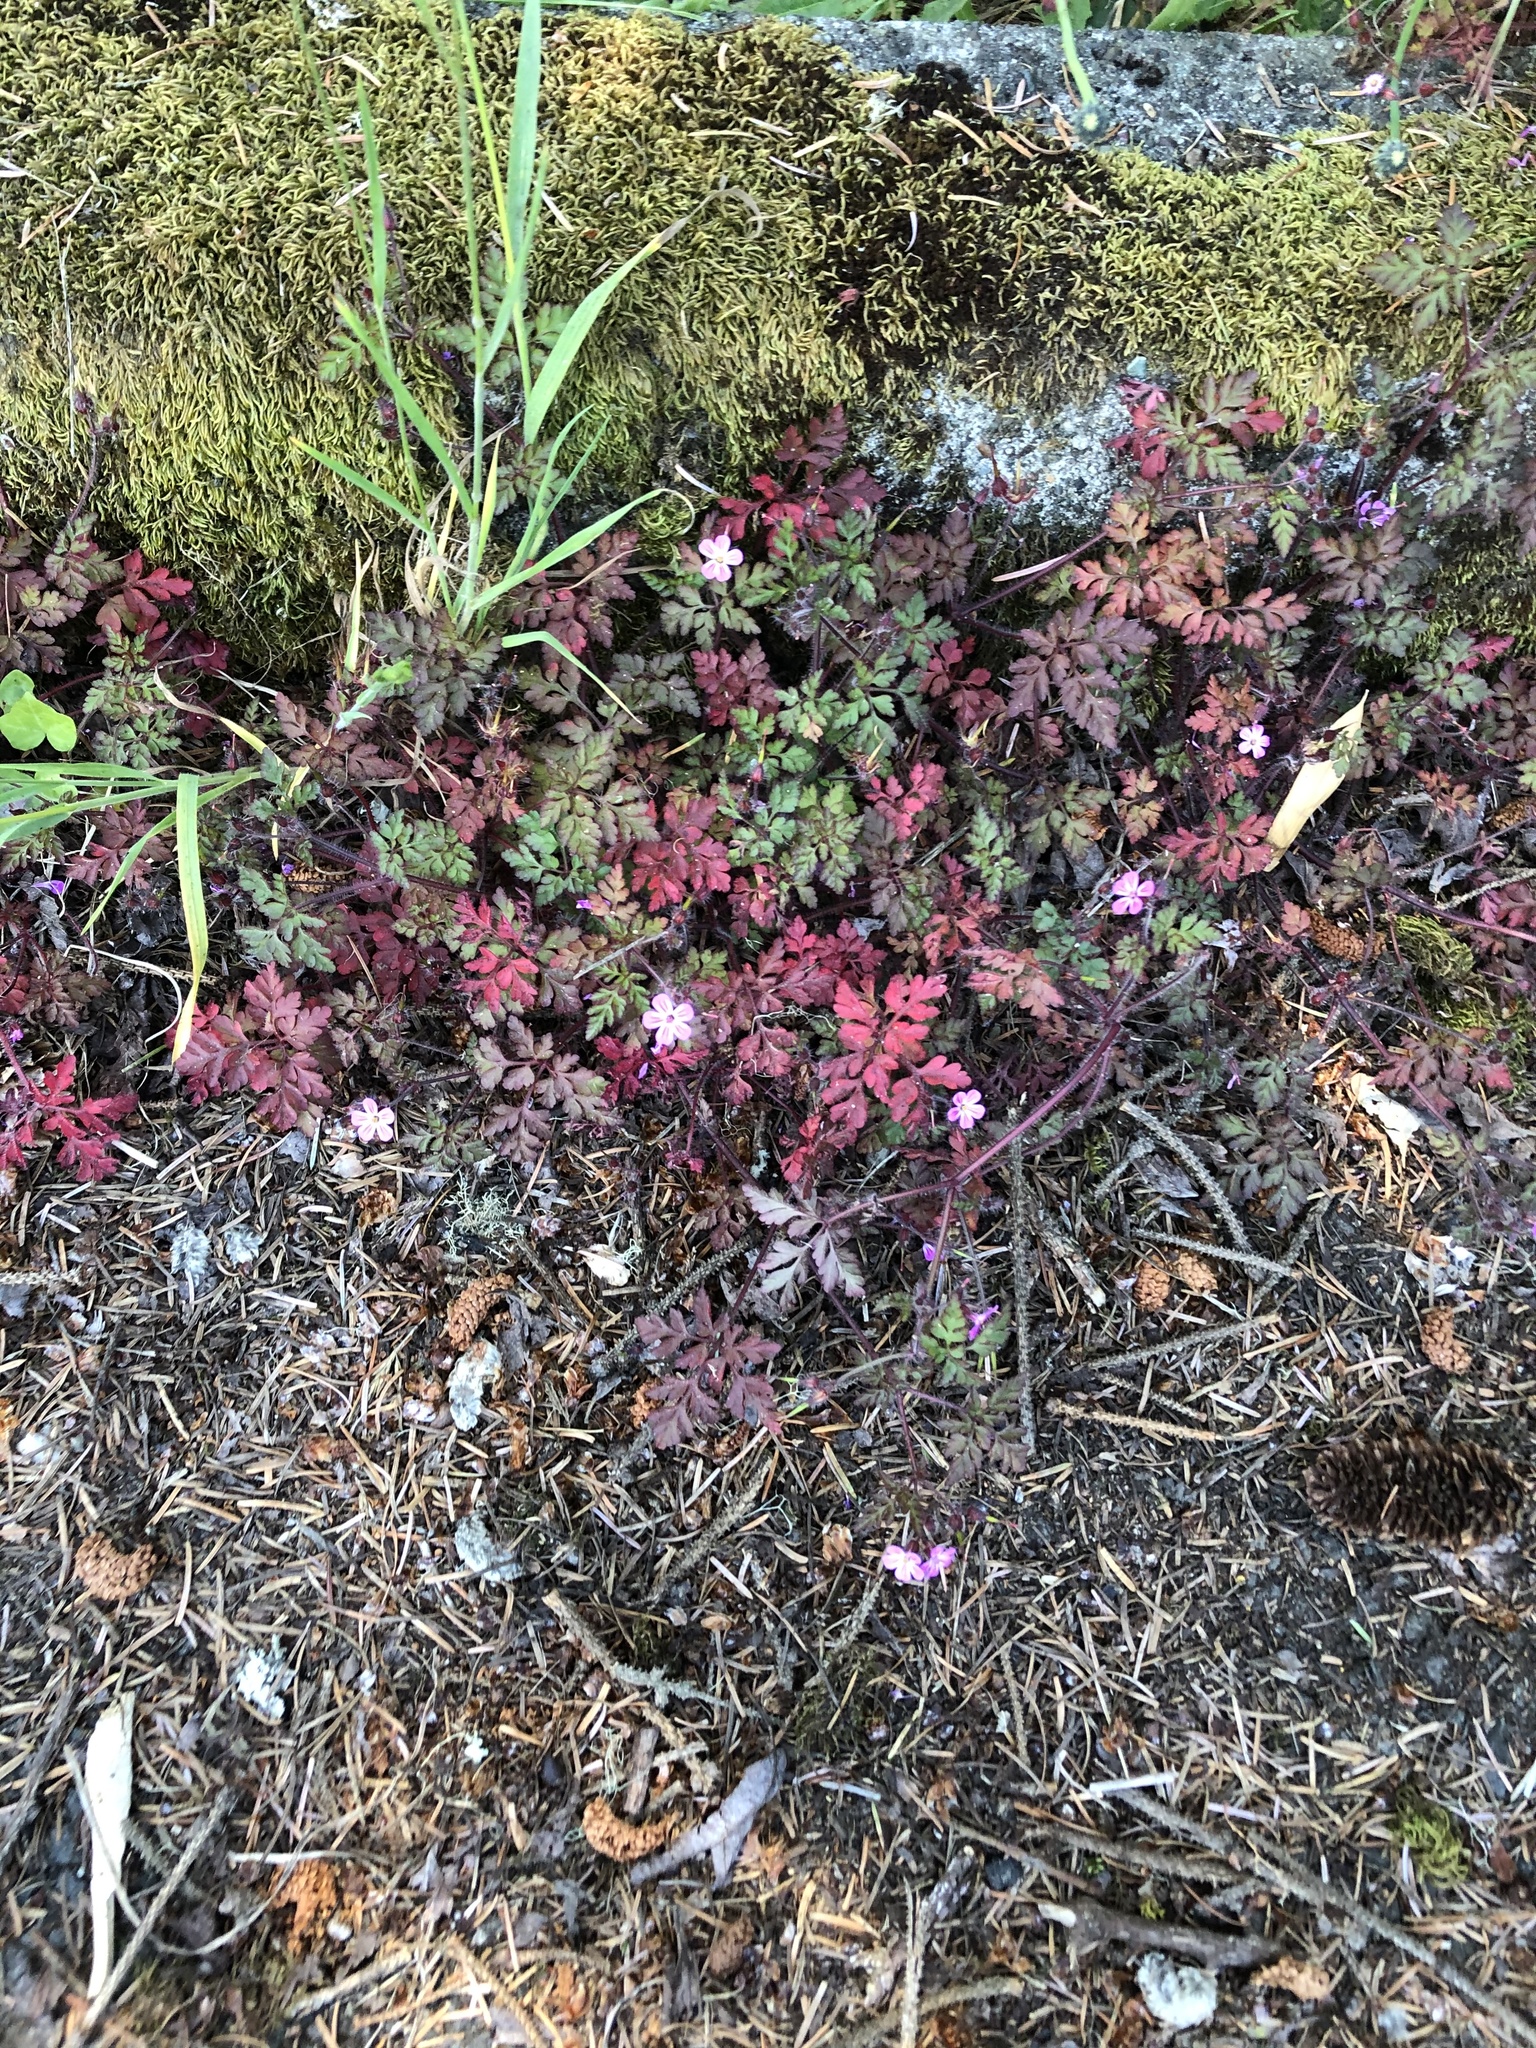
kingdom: Plantae
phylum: Tracheophyta
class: Magnoliopsida
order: Geraniales
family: Geraniaceae
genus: Geranium
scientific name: Geranium robertianum
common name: Herb-robert
